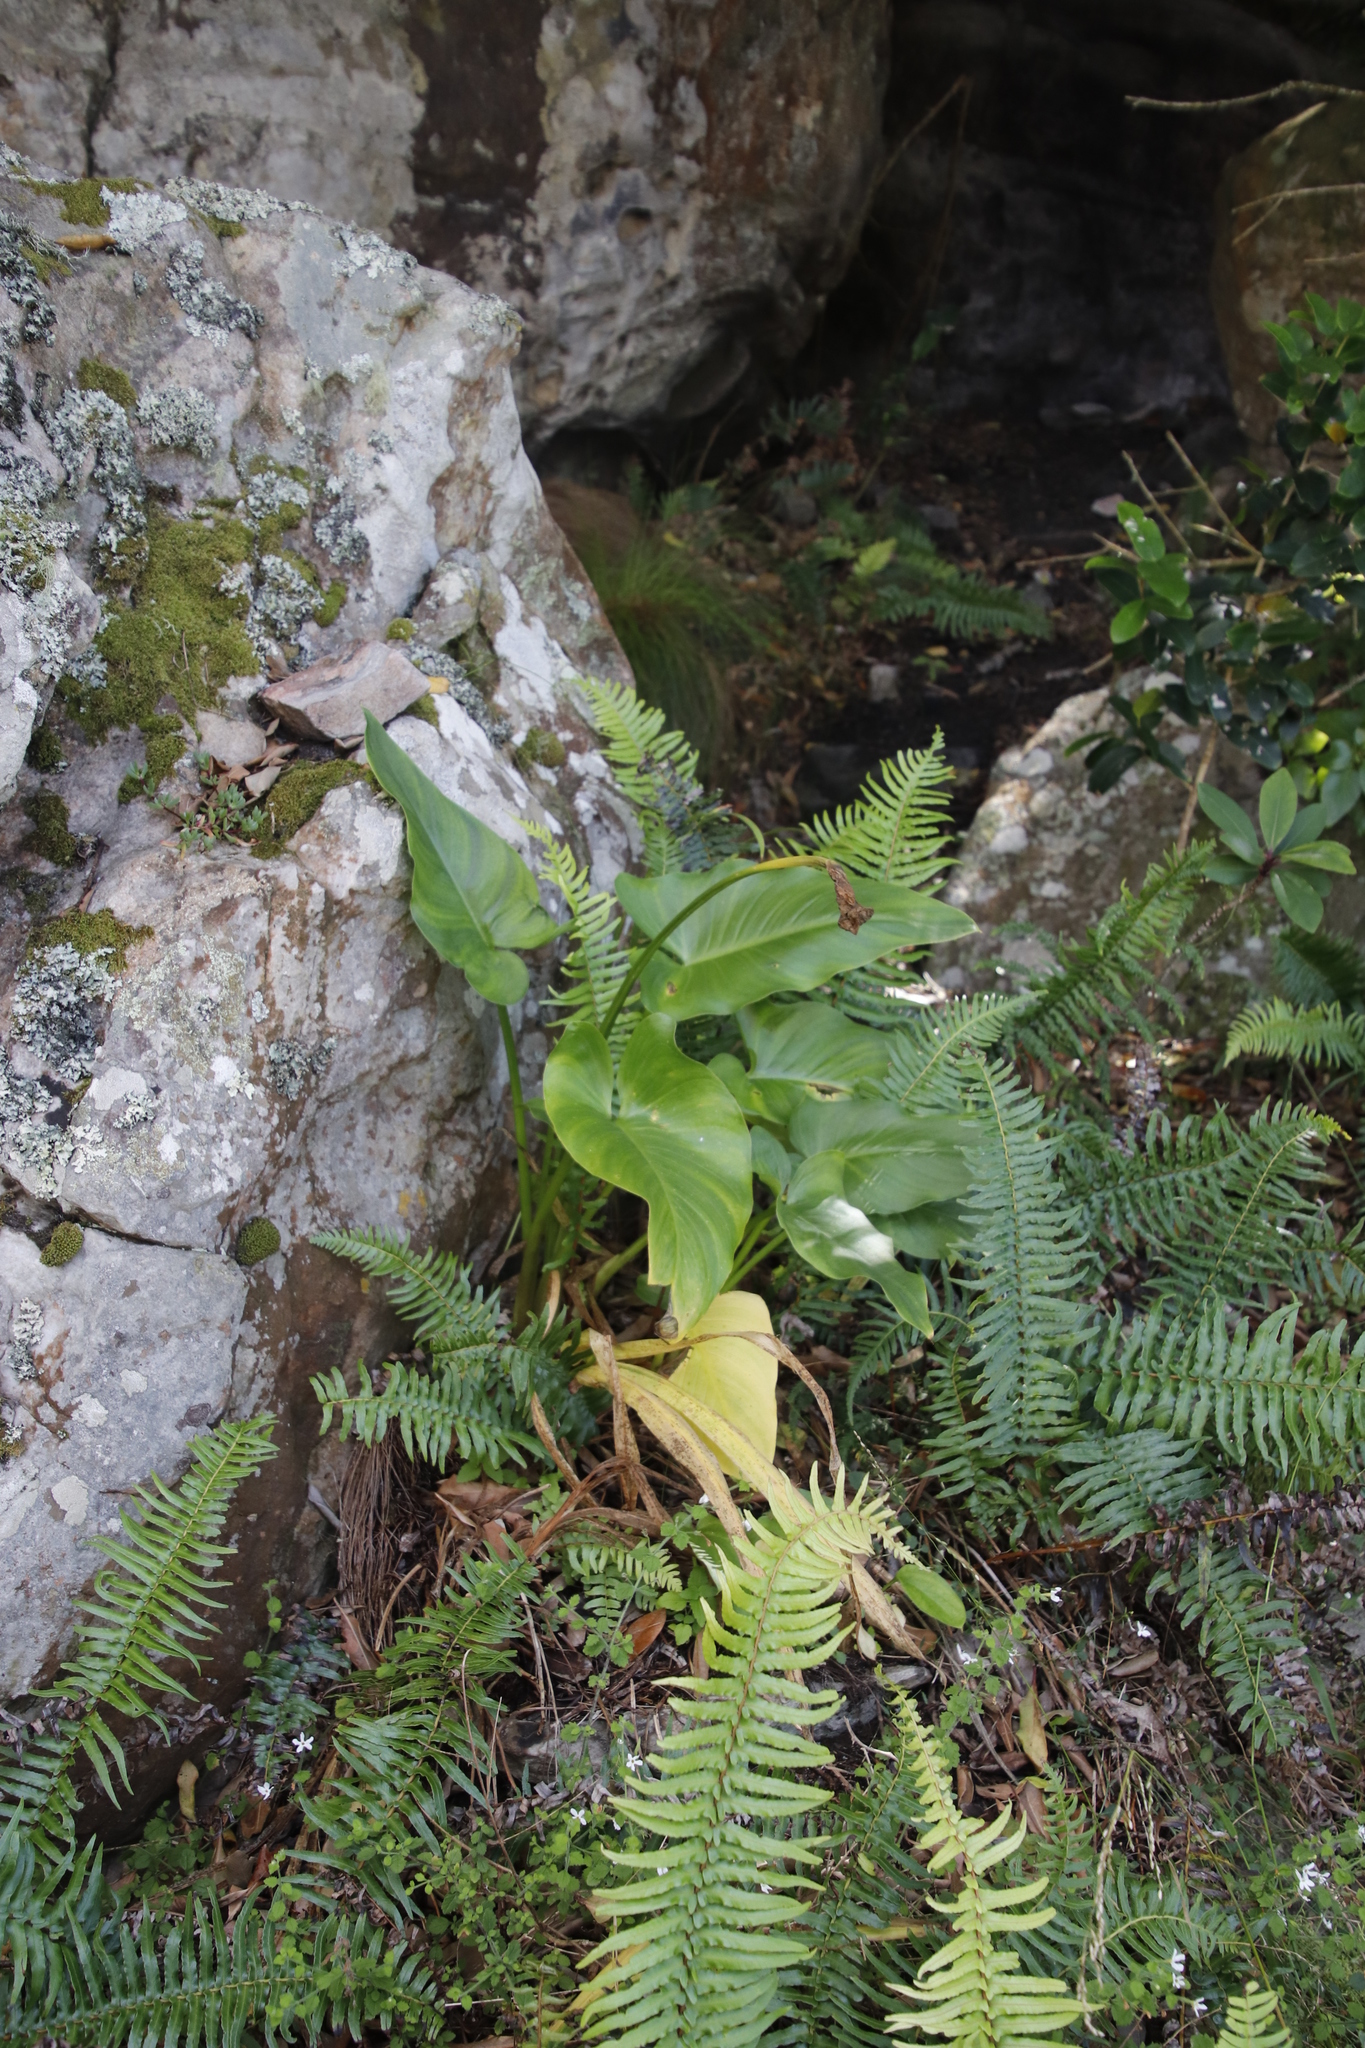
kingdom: Plantae
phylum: Tracheophyta
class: Liliopsida
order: Alismatales
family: Araceae
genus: Zantedeschia
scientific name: Zantedeschia aethiopica
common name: Altar-lily
